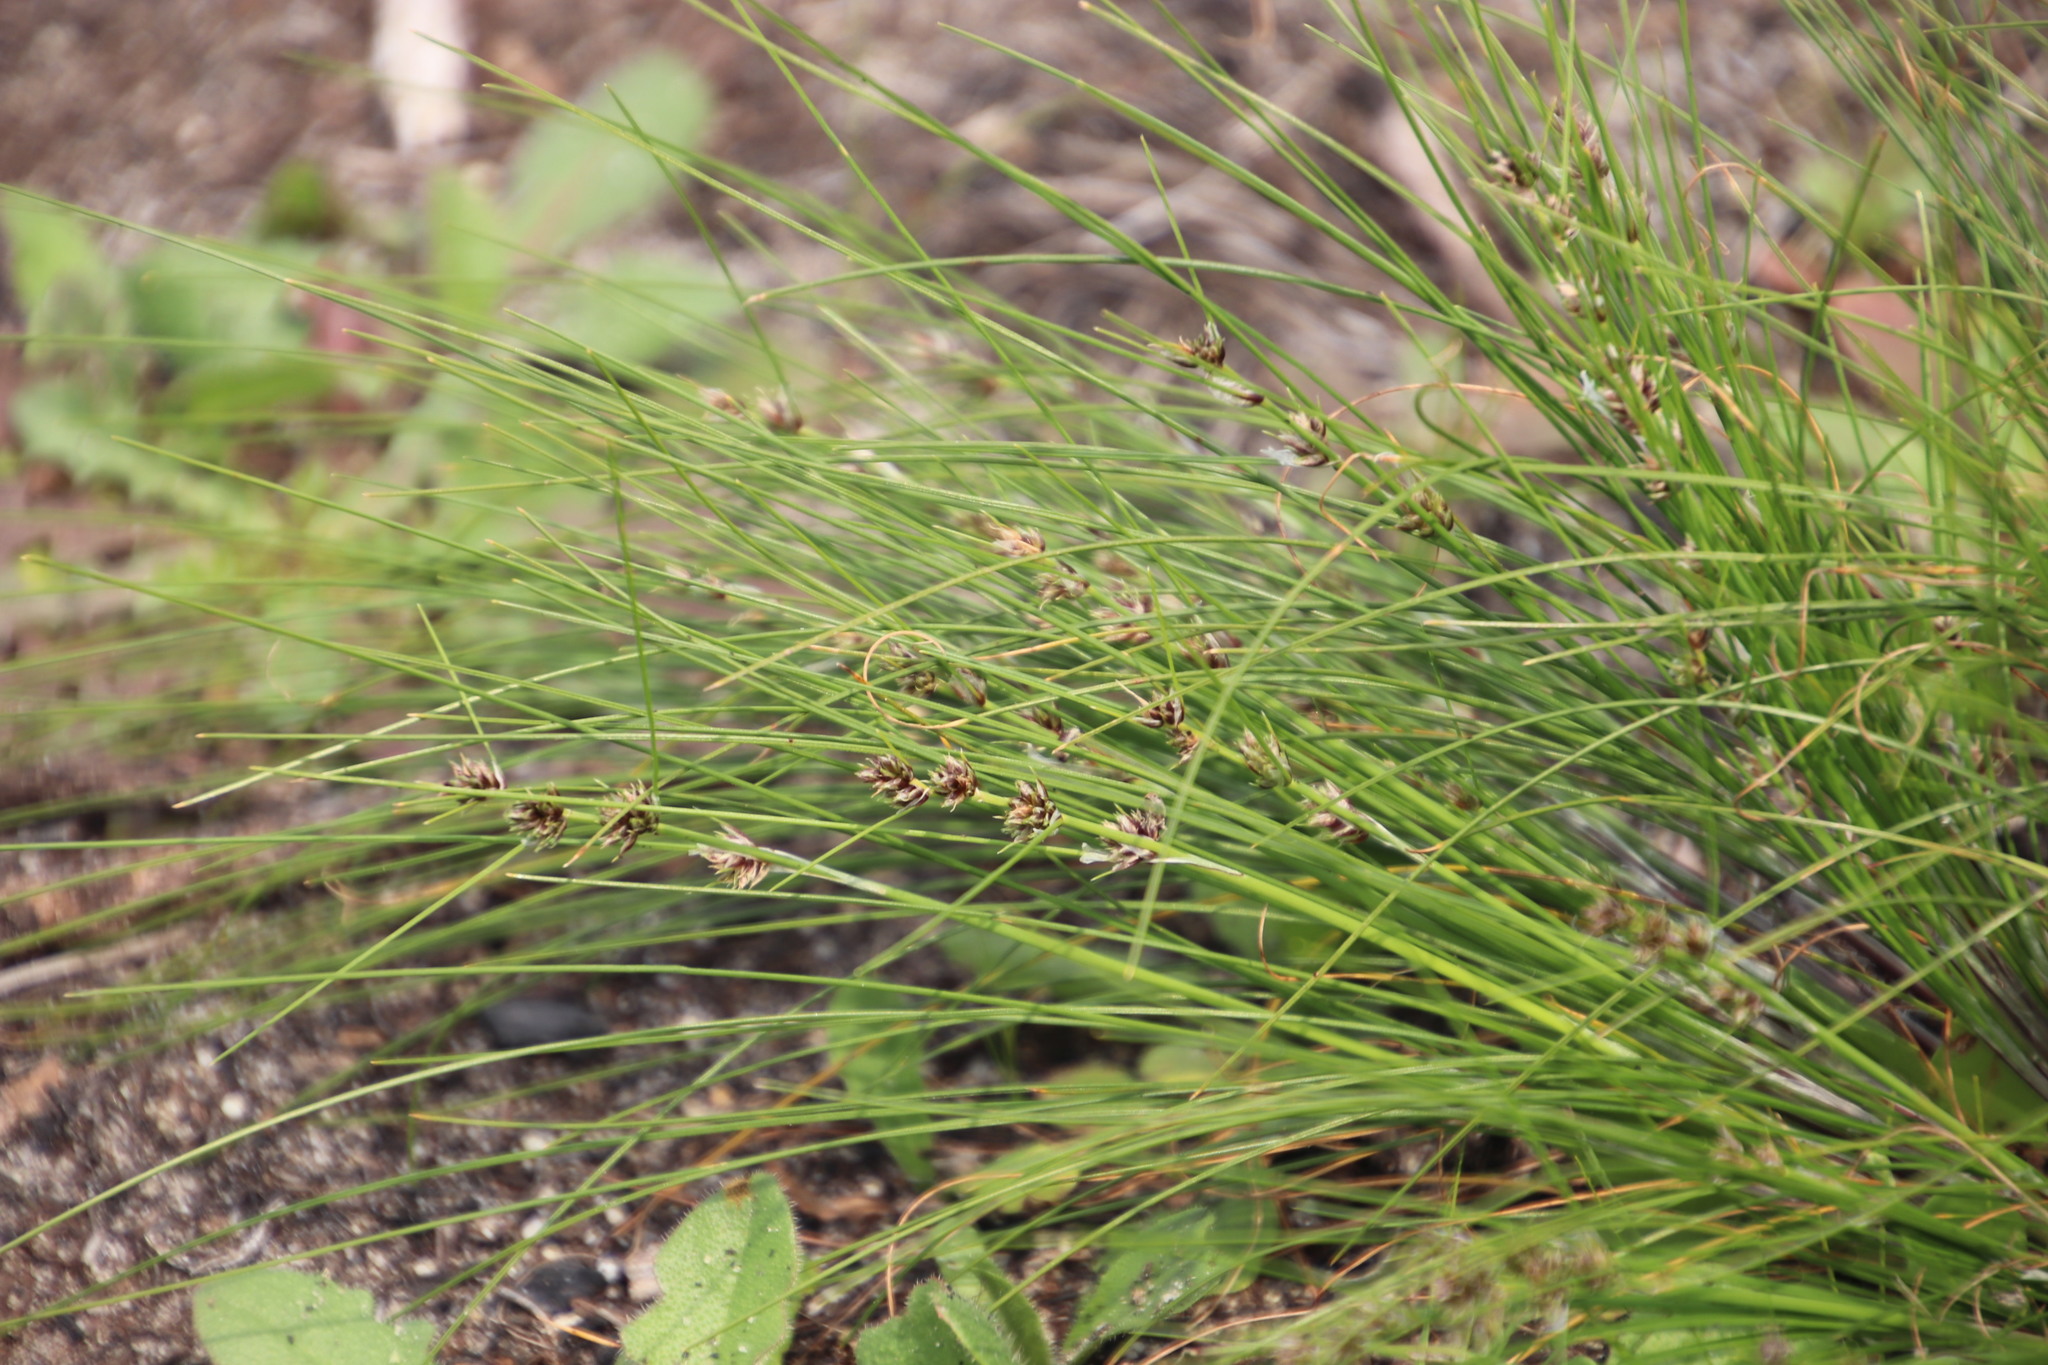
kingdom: Plantae
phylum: Tracheophyta
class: Liliopsida
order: Poales
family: Cyperaceae
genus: Ficinia
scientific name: Ficinia bulbosa
